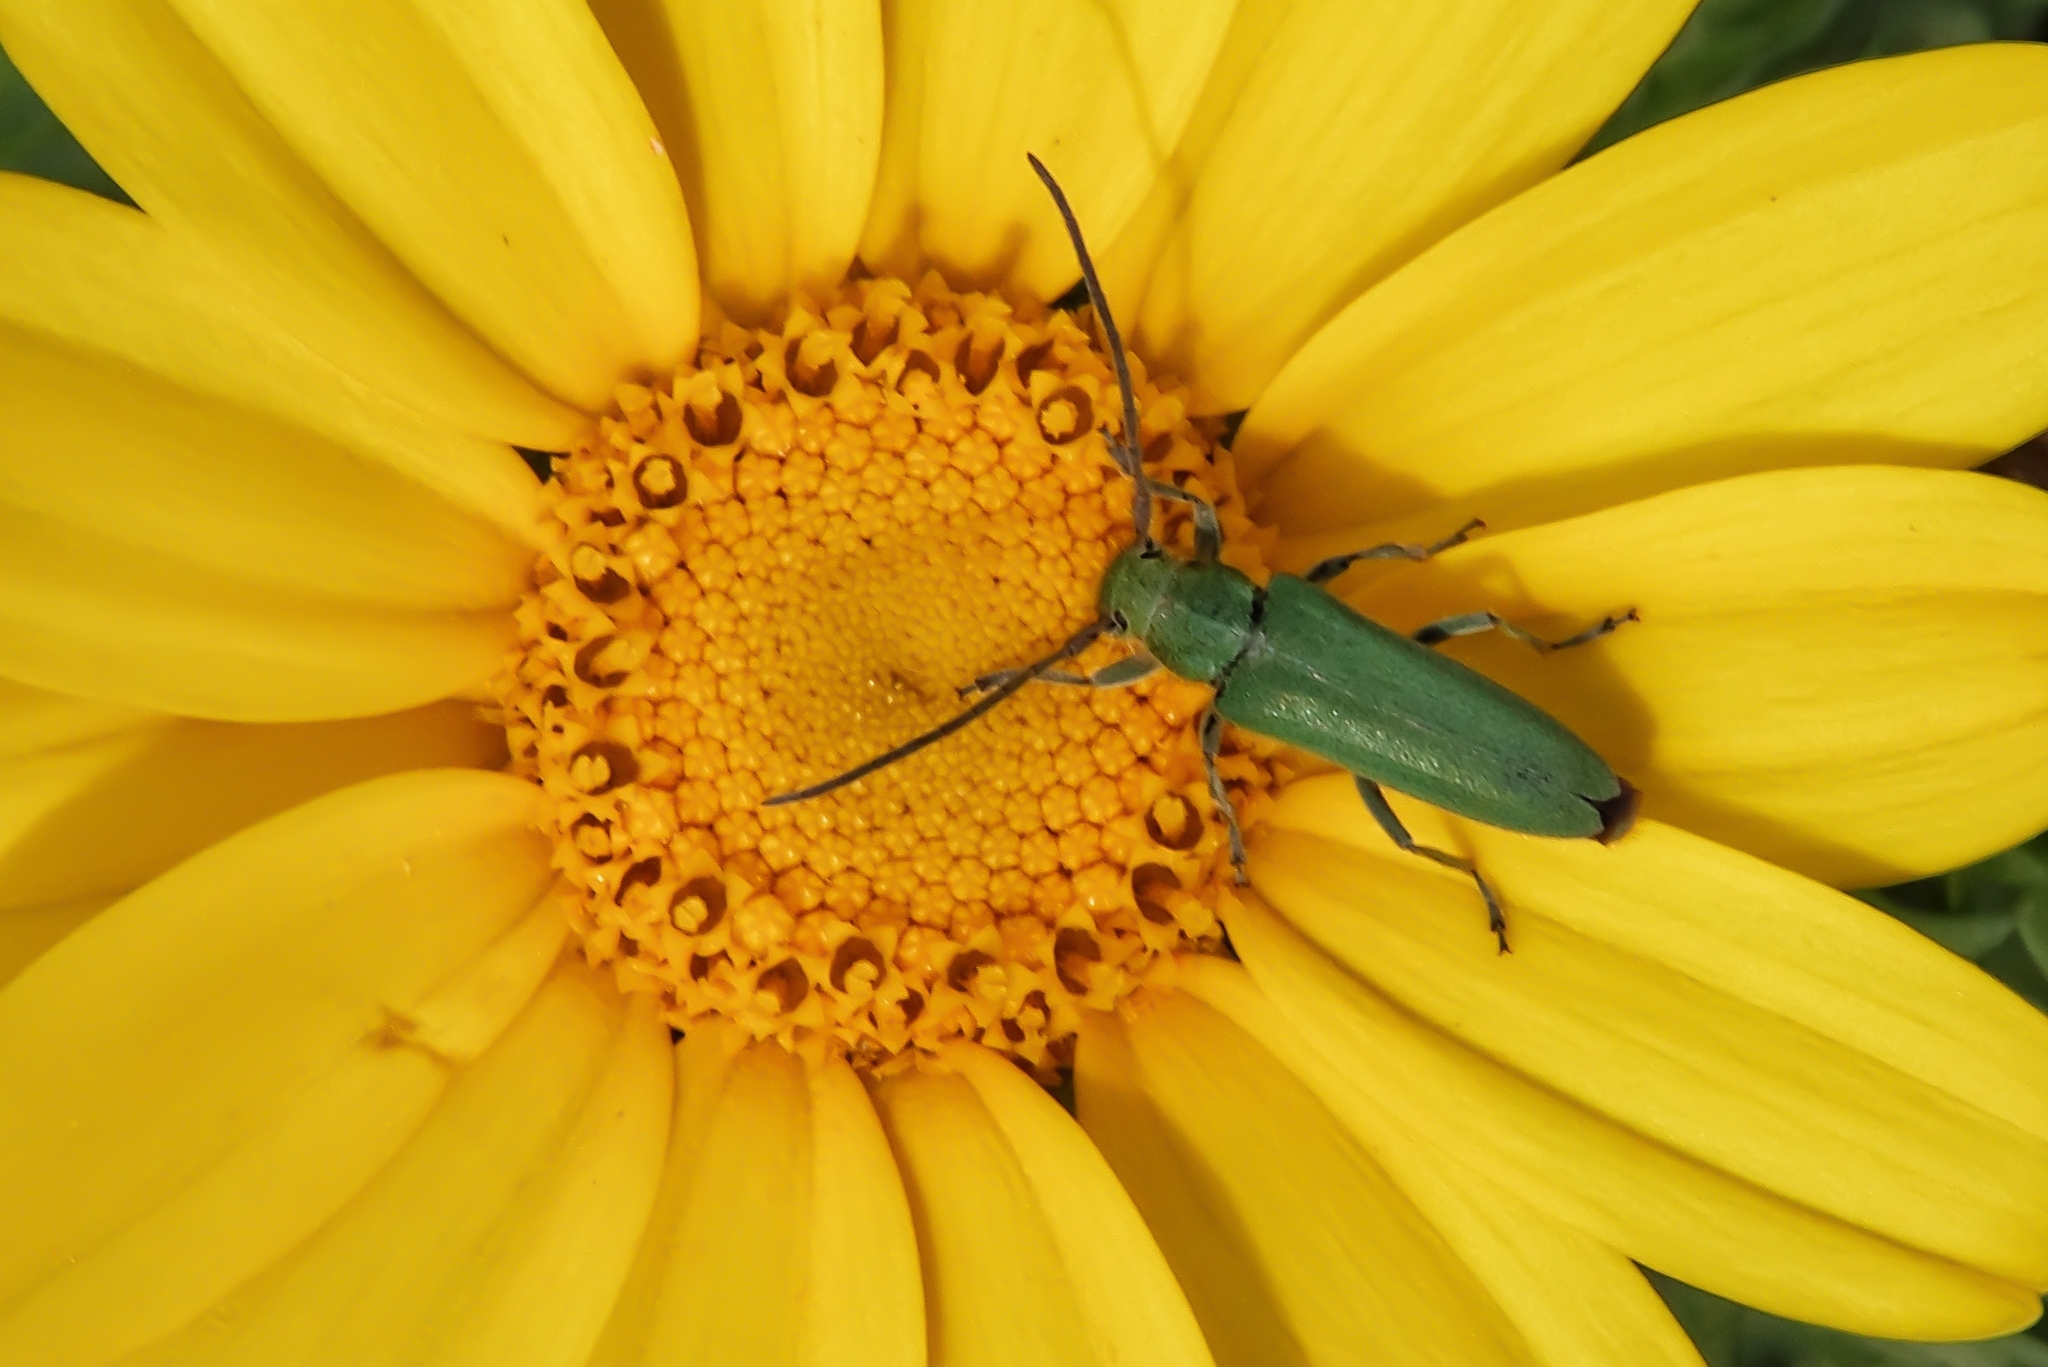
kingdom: Animalia
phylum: Arthropoda
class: Insecta
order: Coleoptera
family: Cerambycidae
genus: Phytoecia
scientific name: Phytoecia malachitica
